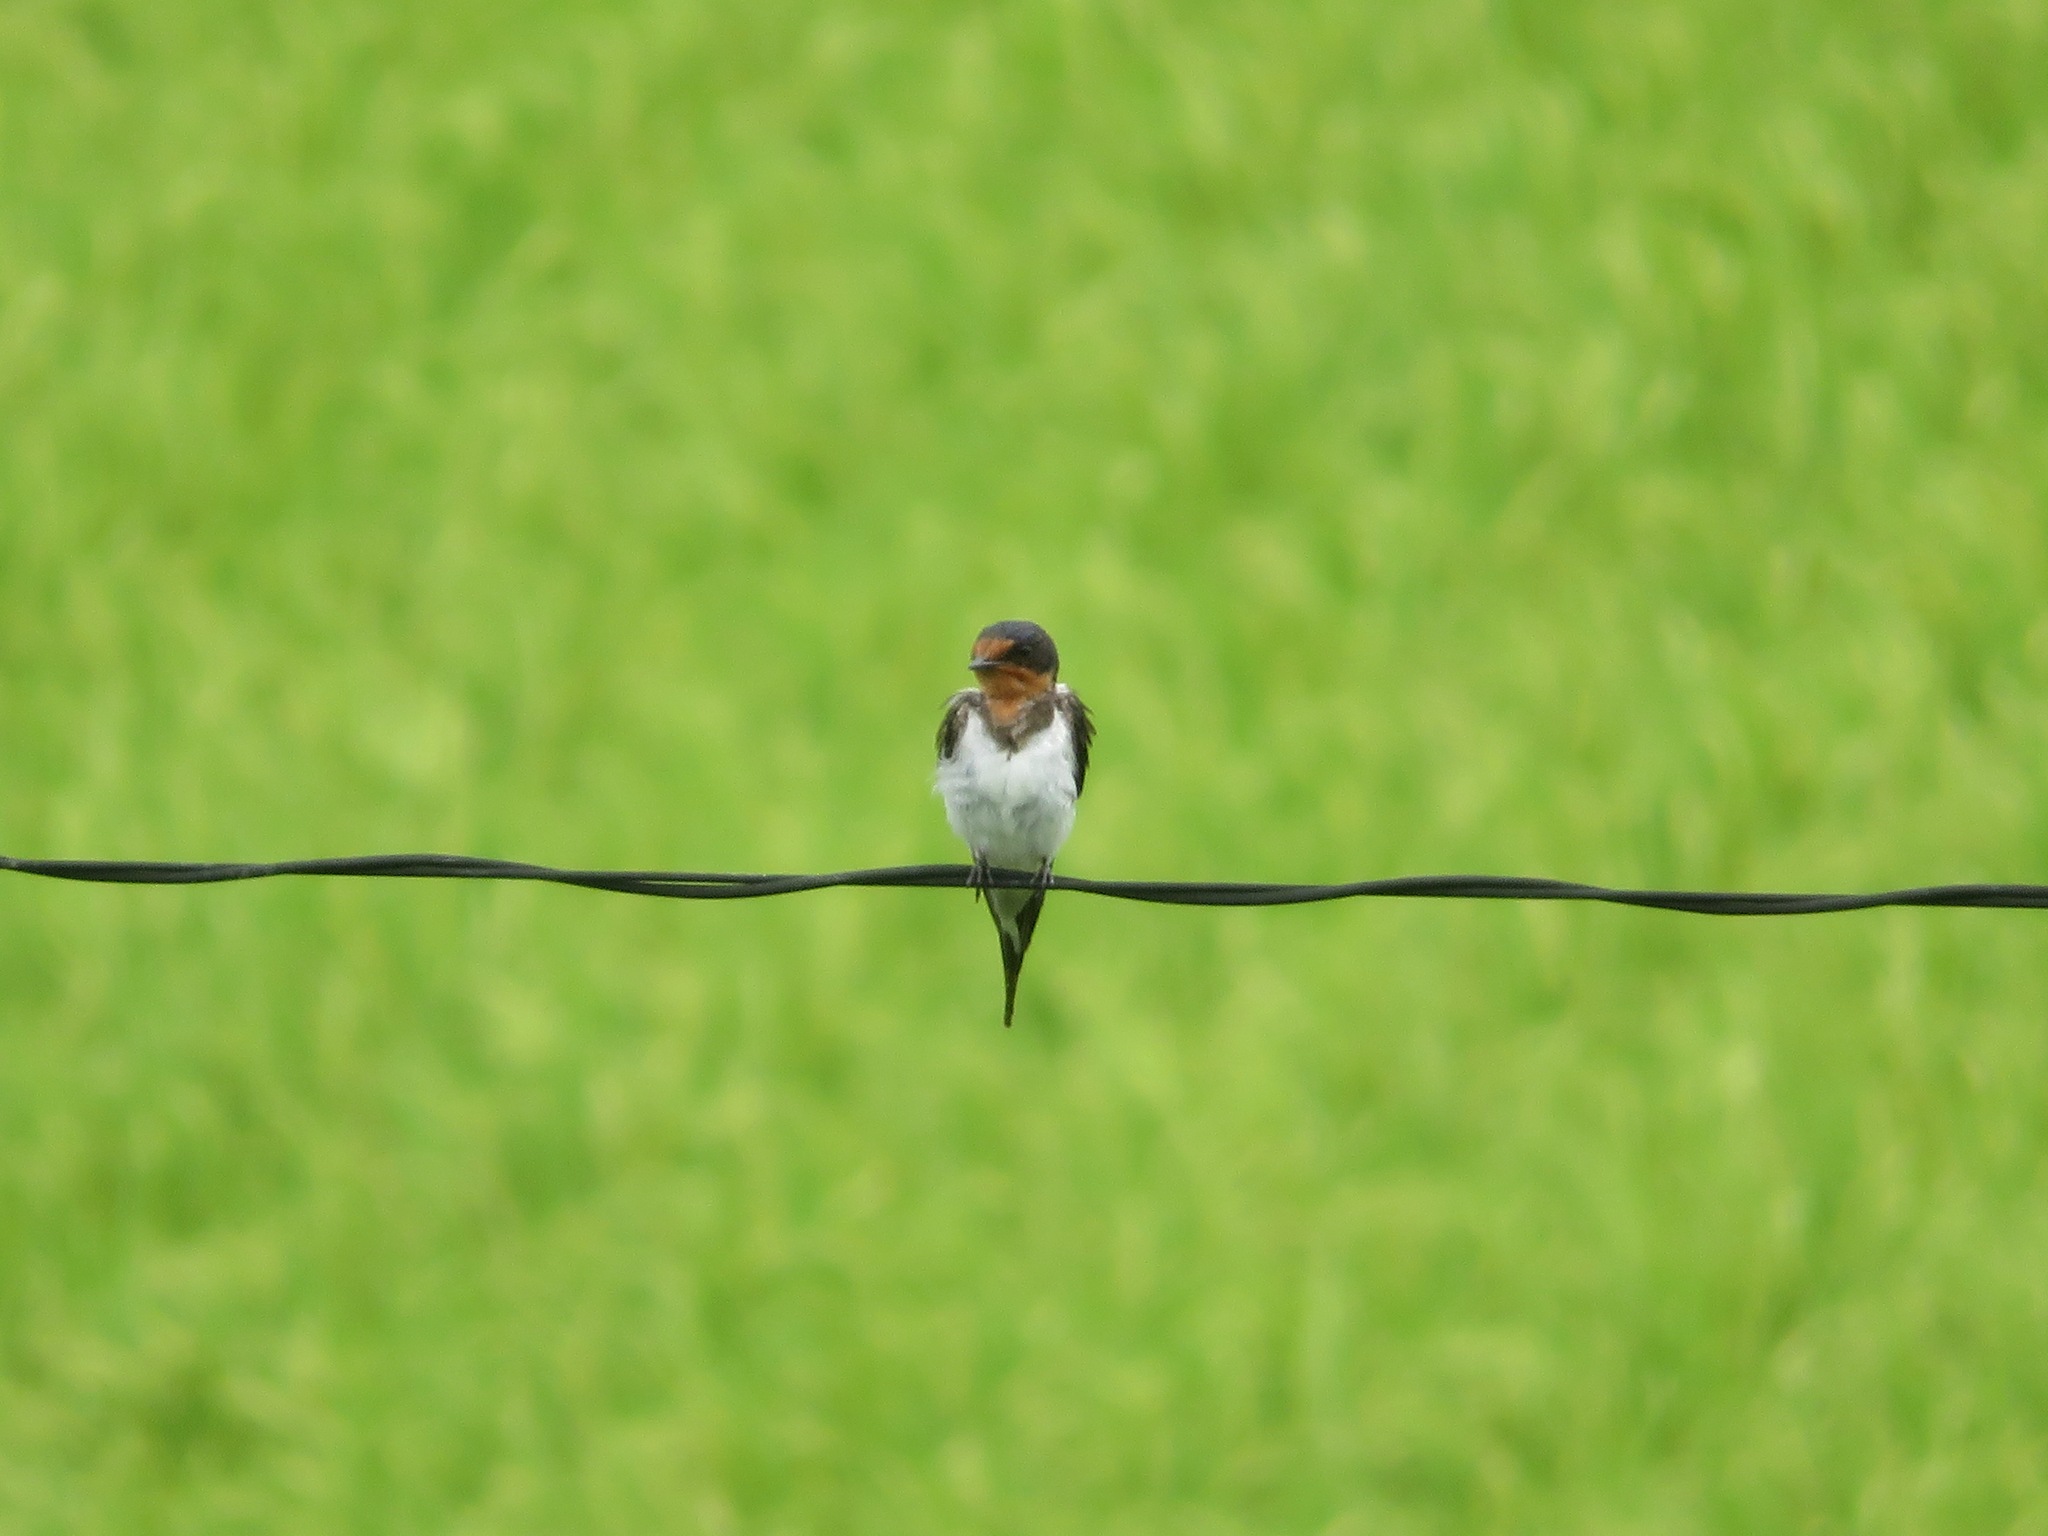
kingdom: Animalia
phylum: Chordata
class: Aves
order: Passeriformes
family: Hirundinidae
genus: Hirundo
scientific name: Hirundo rustica
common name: Barn swallow
